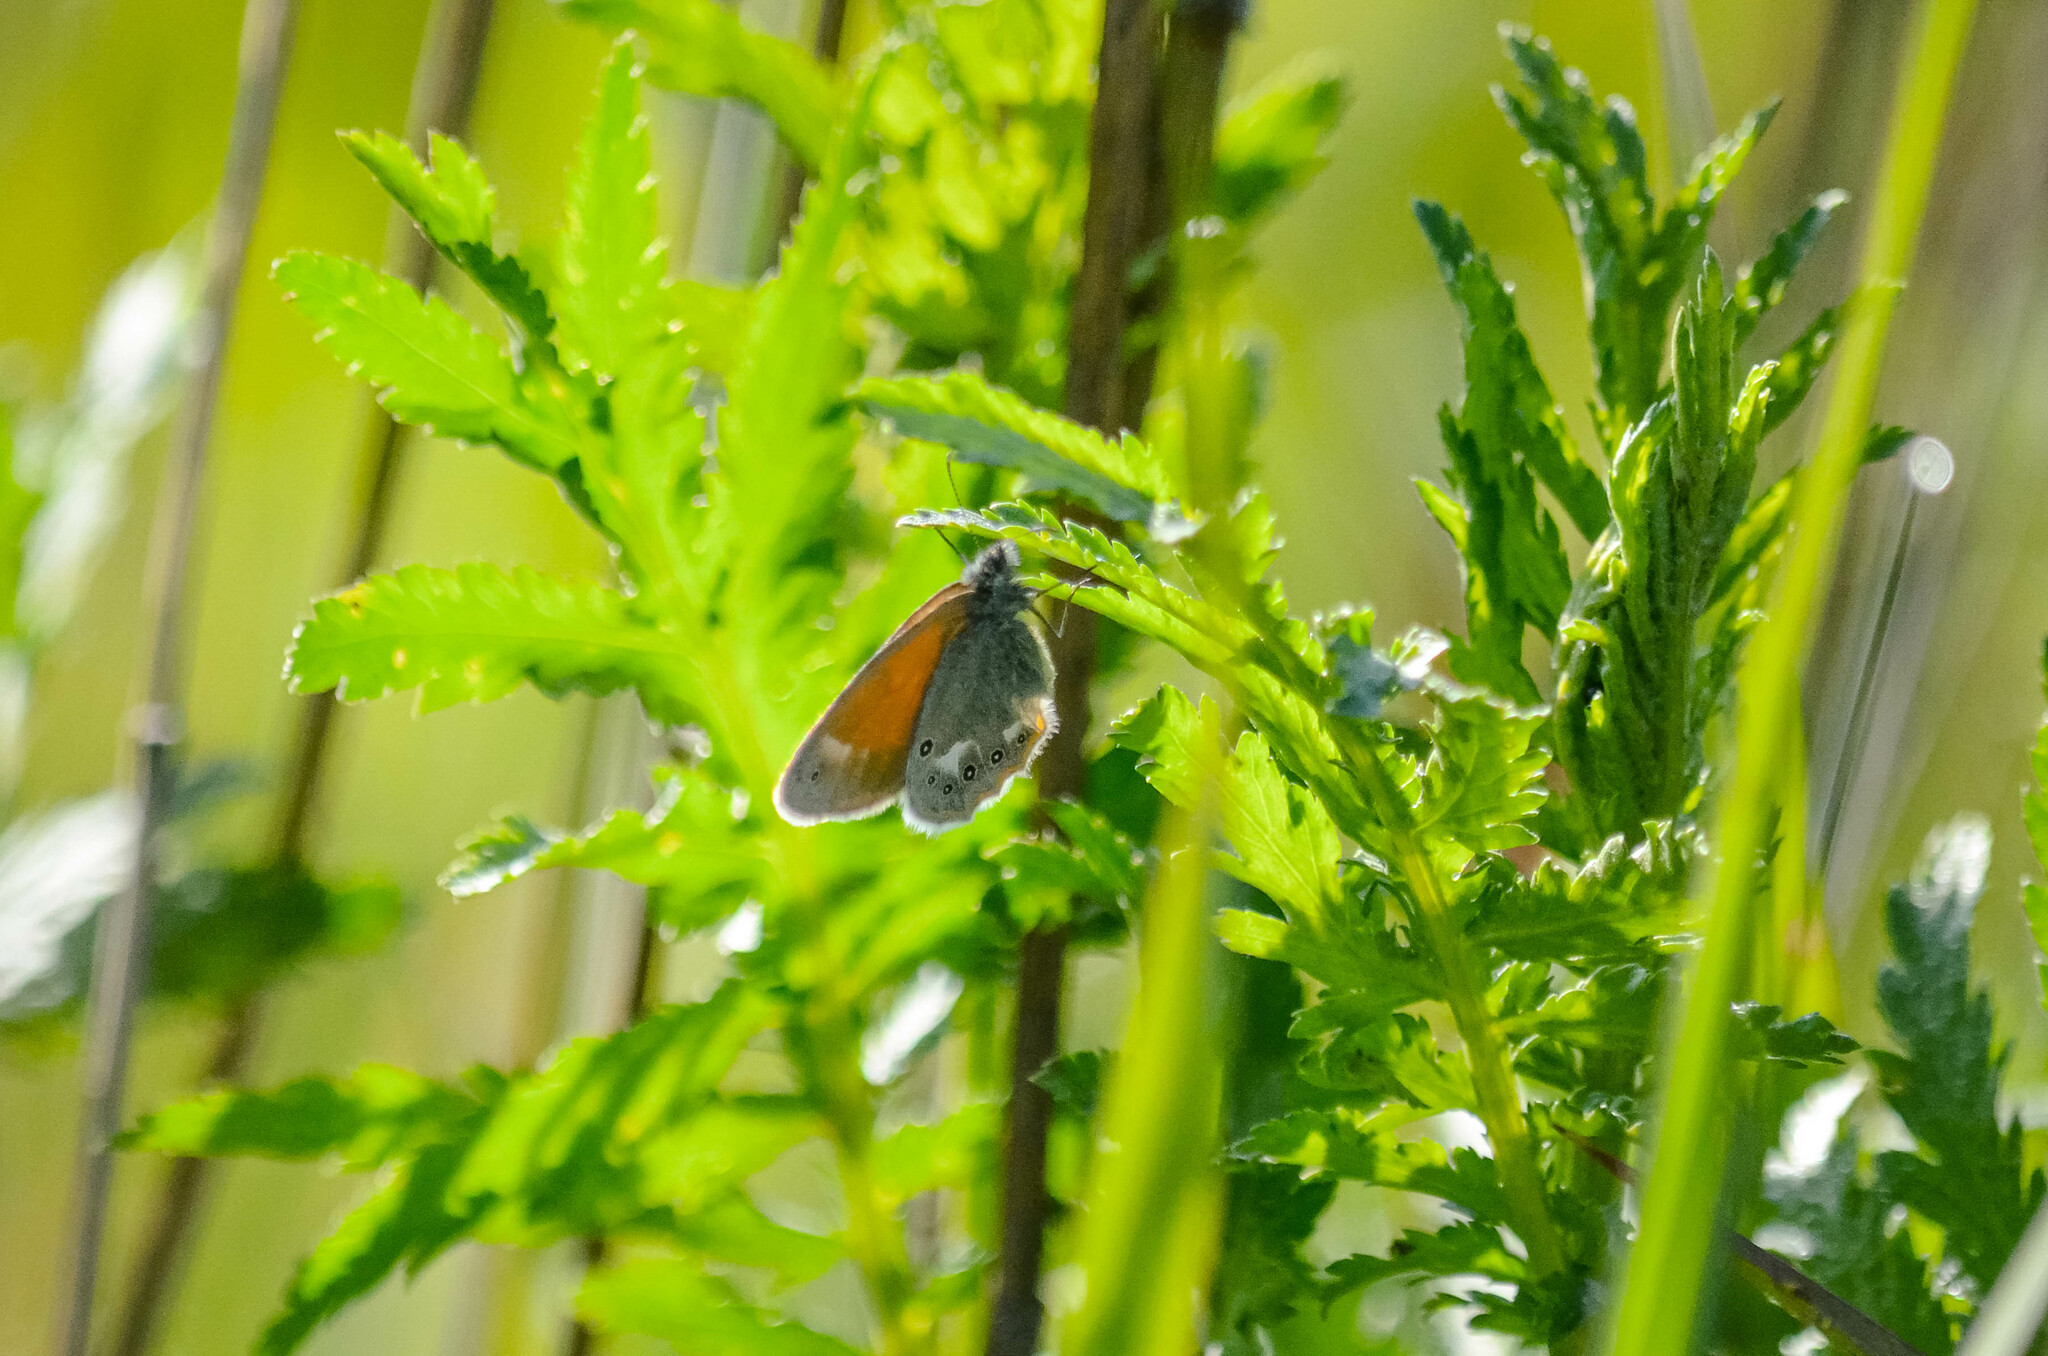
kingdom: Animalia
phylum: Arthropoda
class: Insecta
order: Lepidoptera
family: Nymphalidae
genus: Coenonympha
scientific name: Coenonympha iphis
